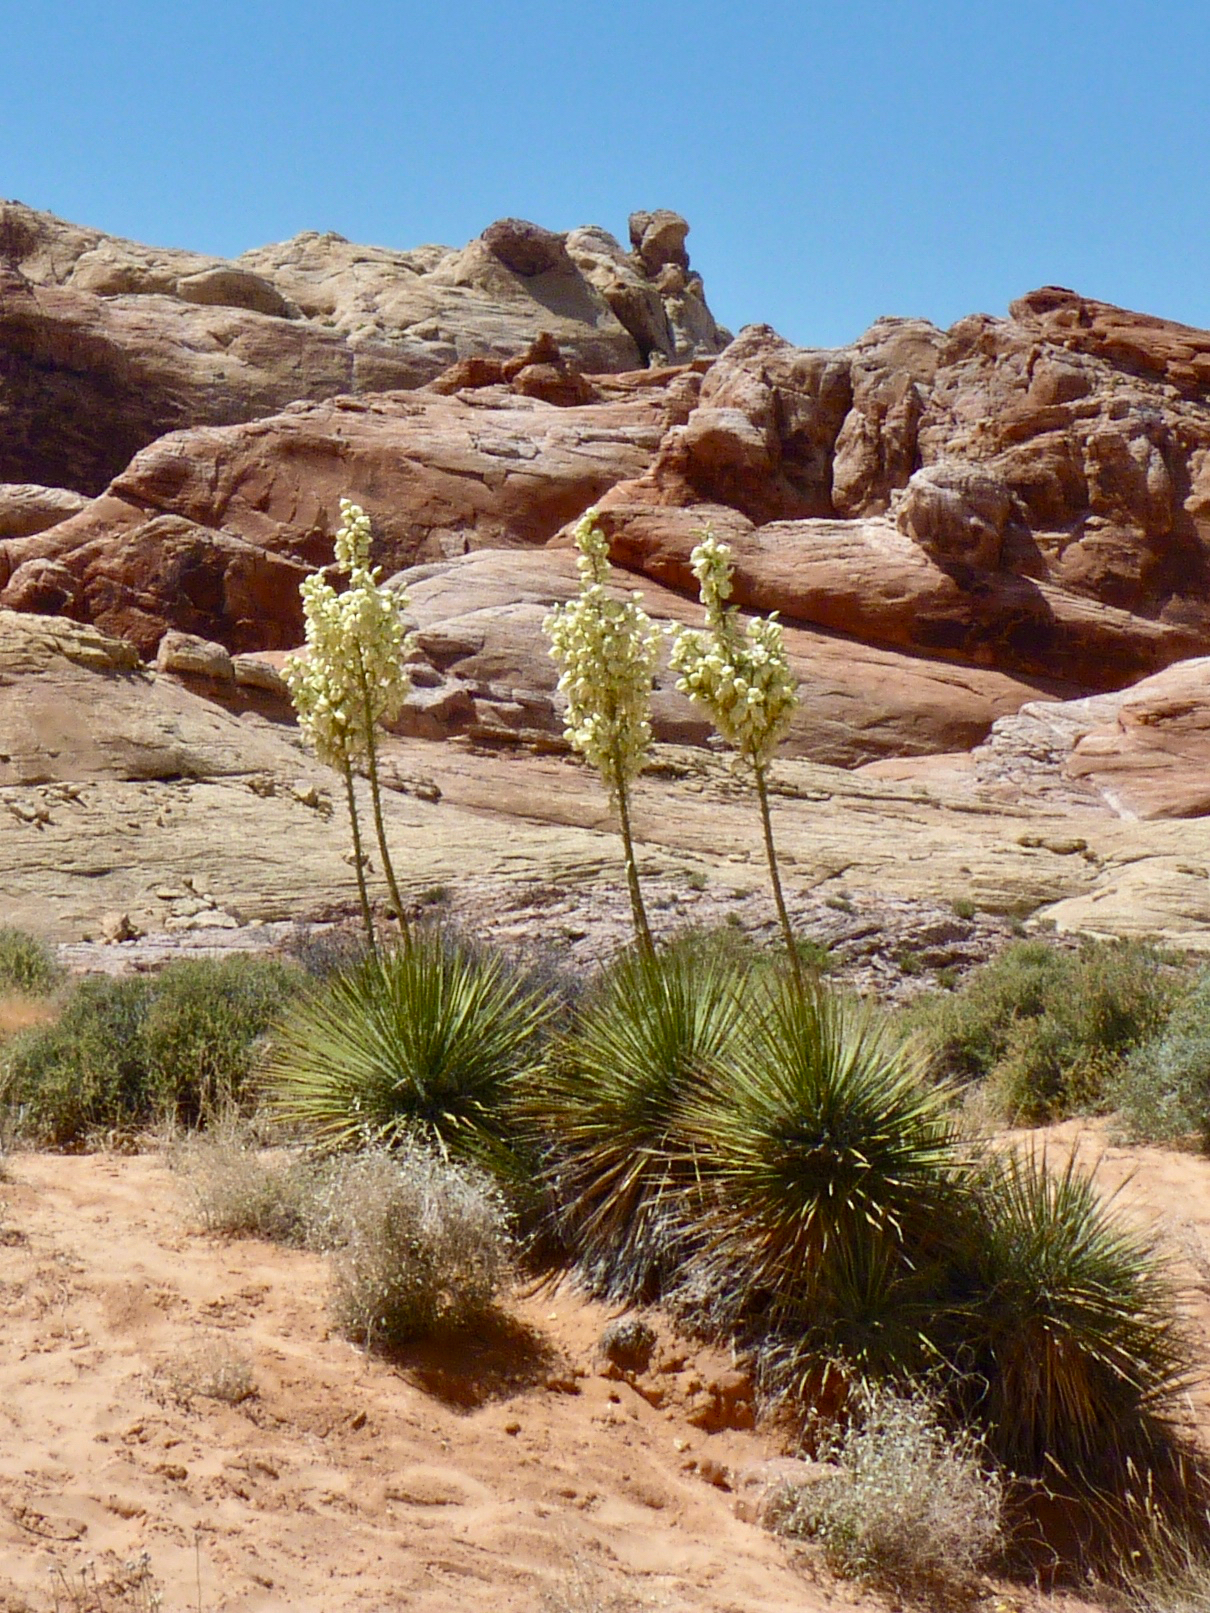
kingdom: Plantae
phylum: Tracheophyta
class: Liliopsida
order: Asparagales
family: Asparagaceae
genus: Yucca
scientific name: Yucca utahensis
